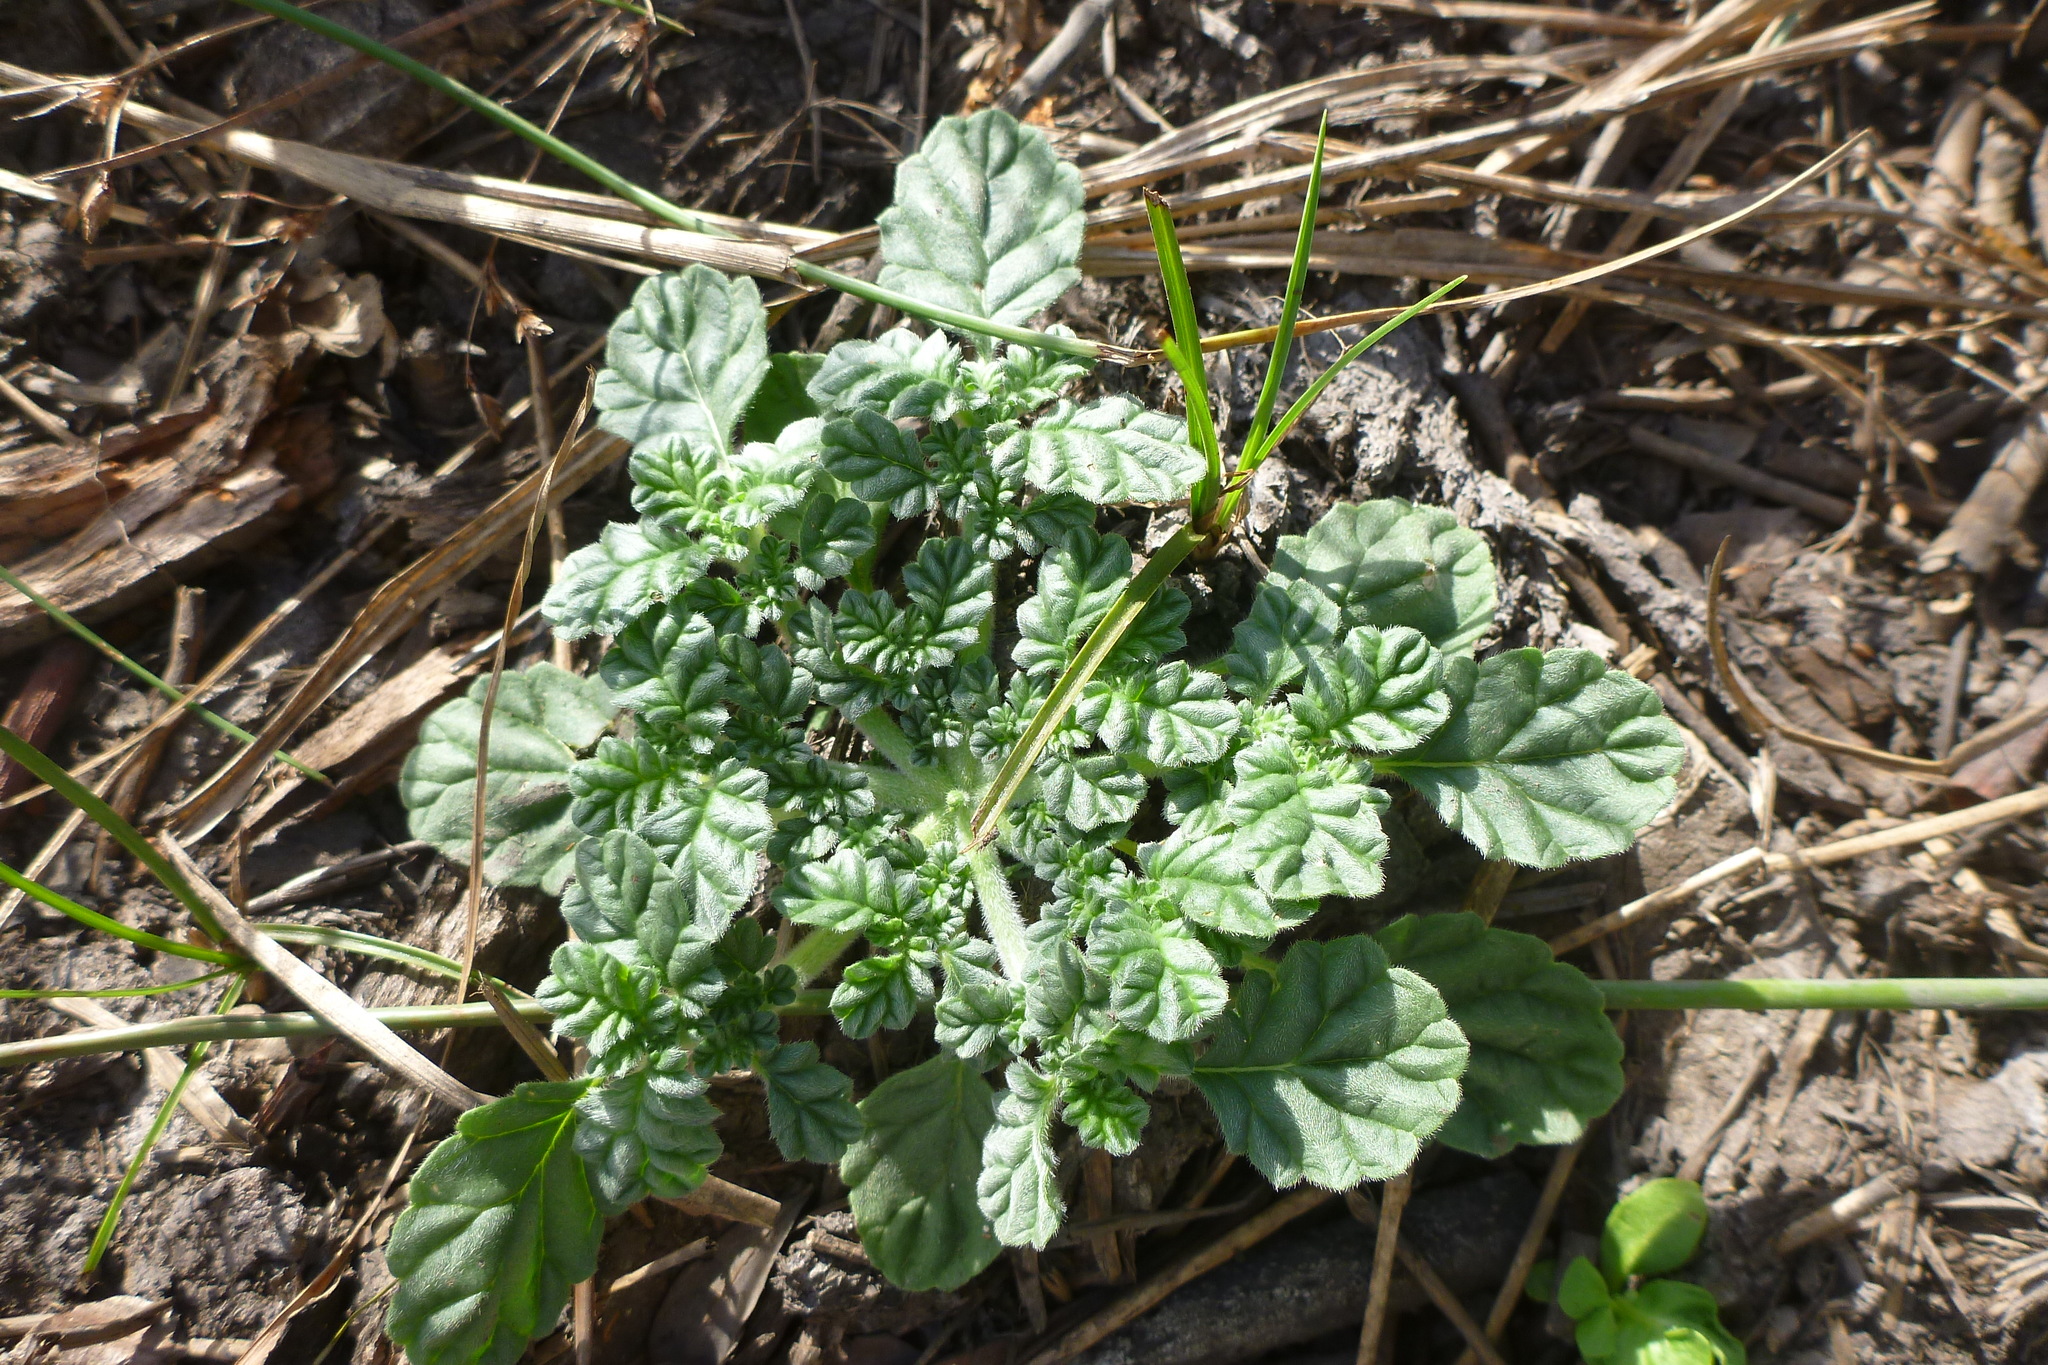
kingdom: Plantae
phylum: Tracheophyta
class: Magnoliopsida
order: Boraginales
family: Coldeniaceae
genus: Coldenia
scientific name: Coldenia procumbens
